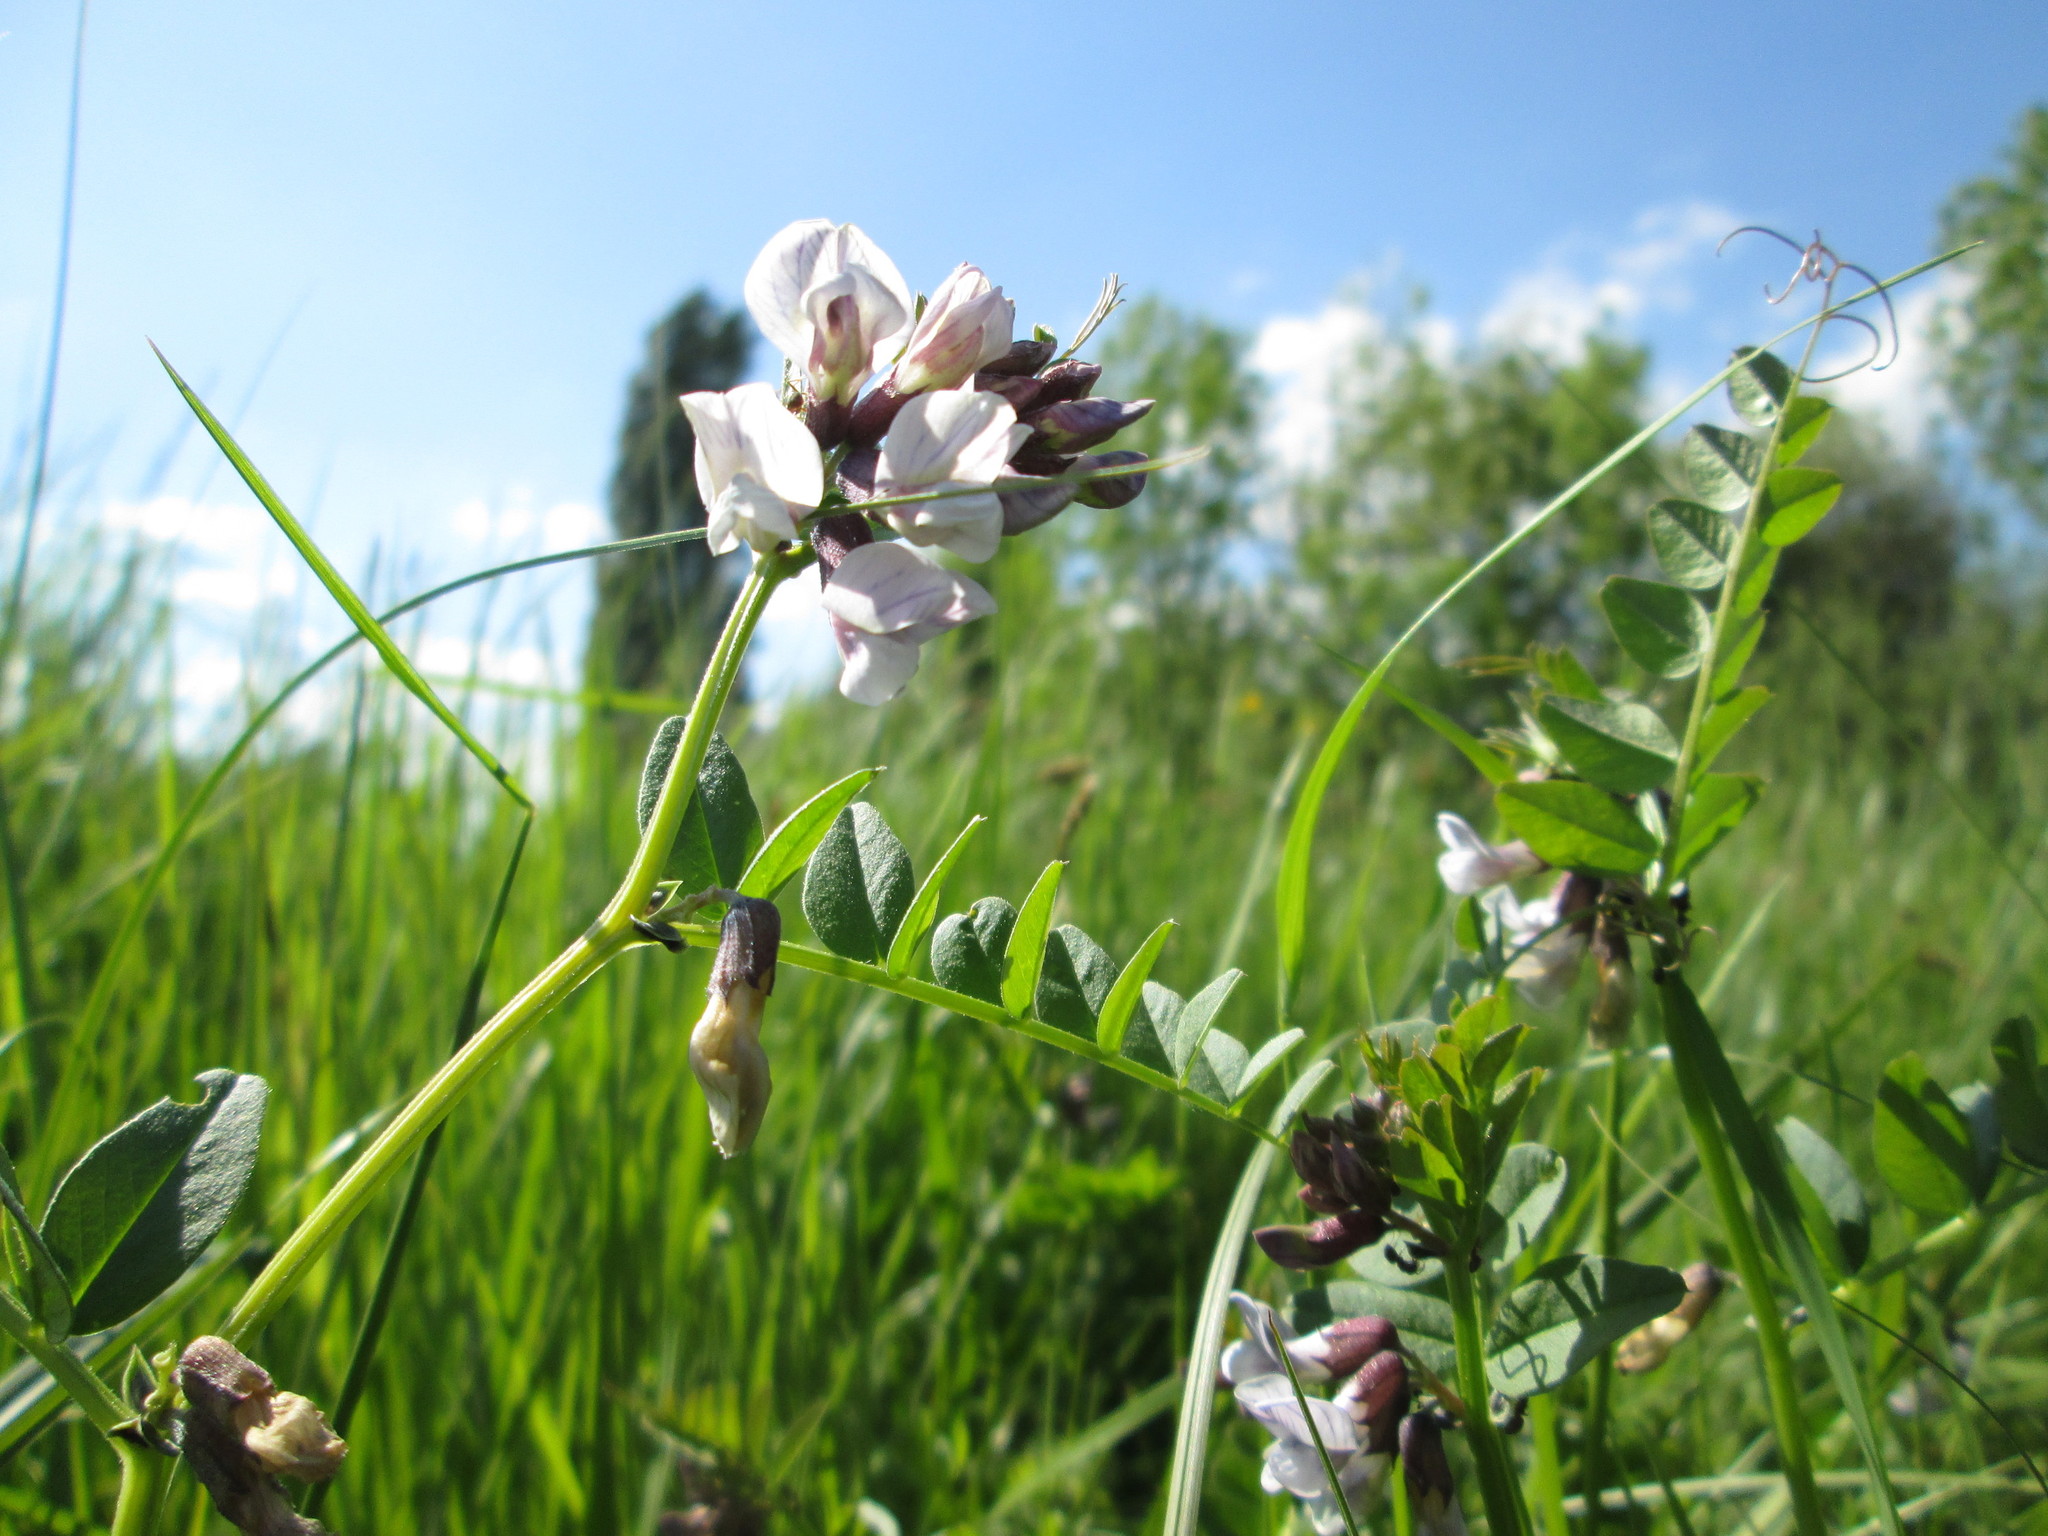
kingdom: Plantae
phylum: Tracheophyta
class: Magnoliopsida
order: Fabales
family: Fabaceae
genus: Vicia
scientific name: Vicia sepium
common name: Bush vetch
